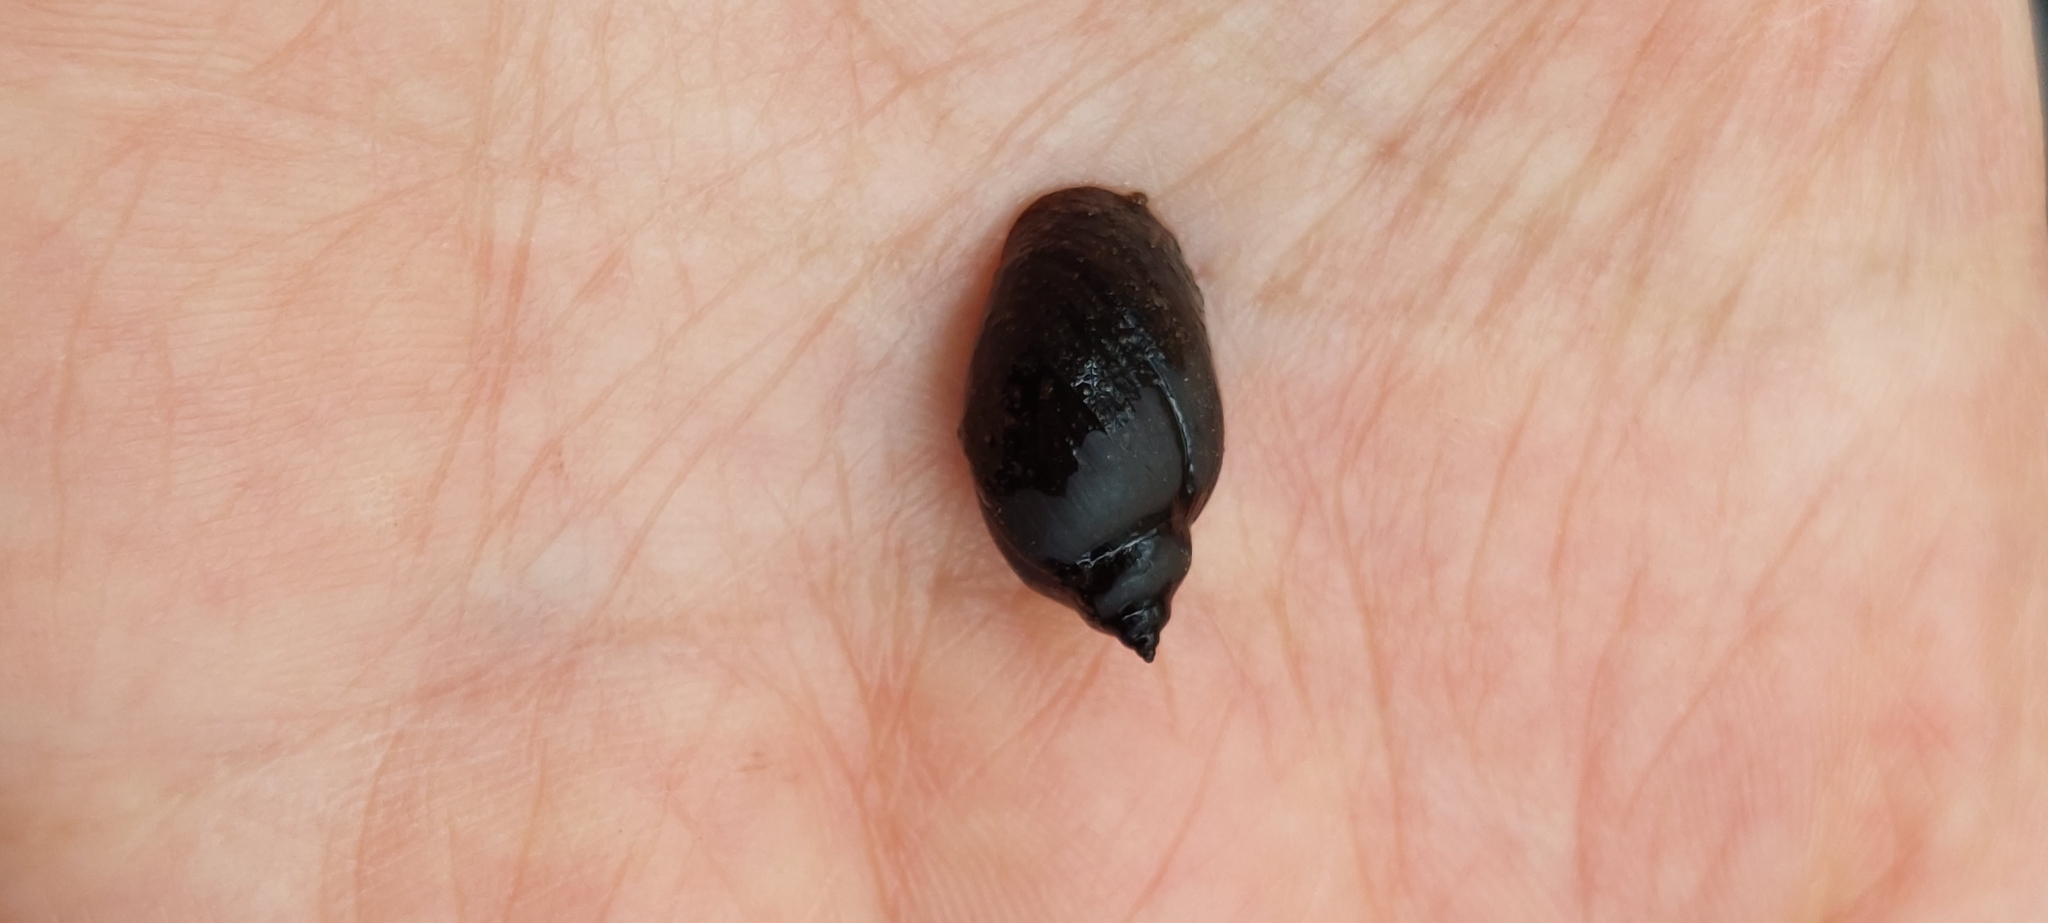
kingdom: Animalia
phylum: Mollusca
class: Gastropoda
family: Chilinidae
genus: Chilina
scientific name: Chilina parchappii
